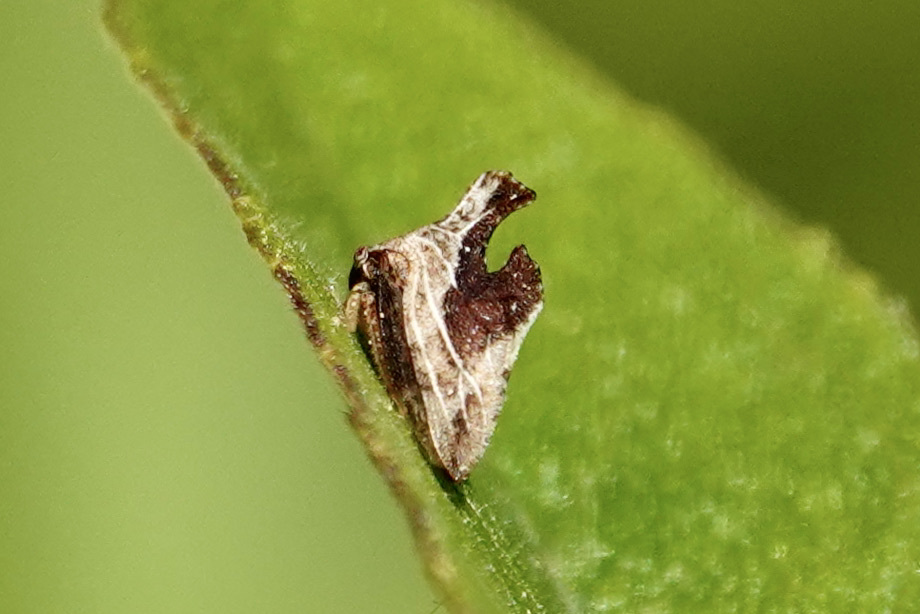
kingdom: Animalia
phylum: Arthropoda
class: Insecta
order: Hemiptera
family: Membracidae
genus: Entylia
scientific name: Entylia carinata
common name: Keeled treehopper
